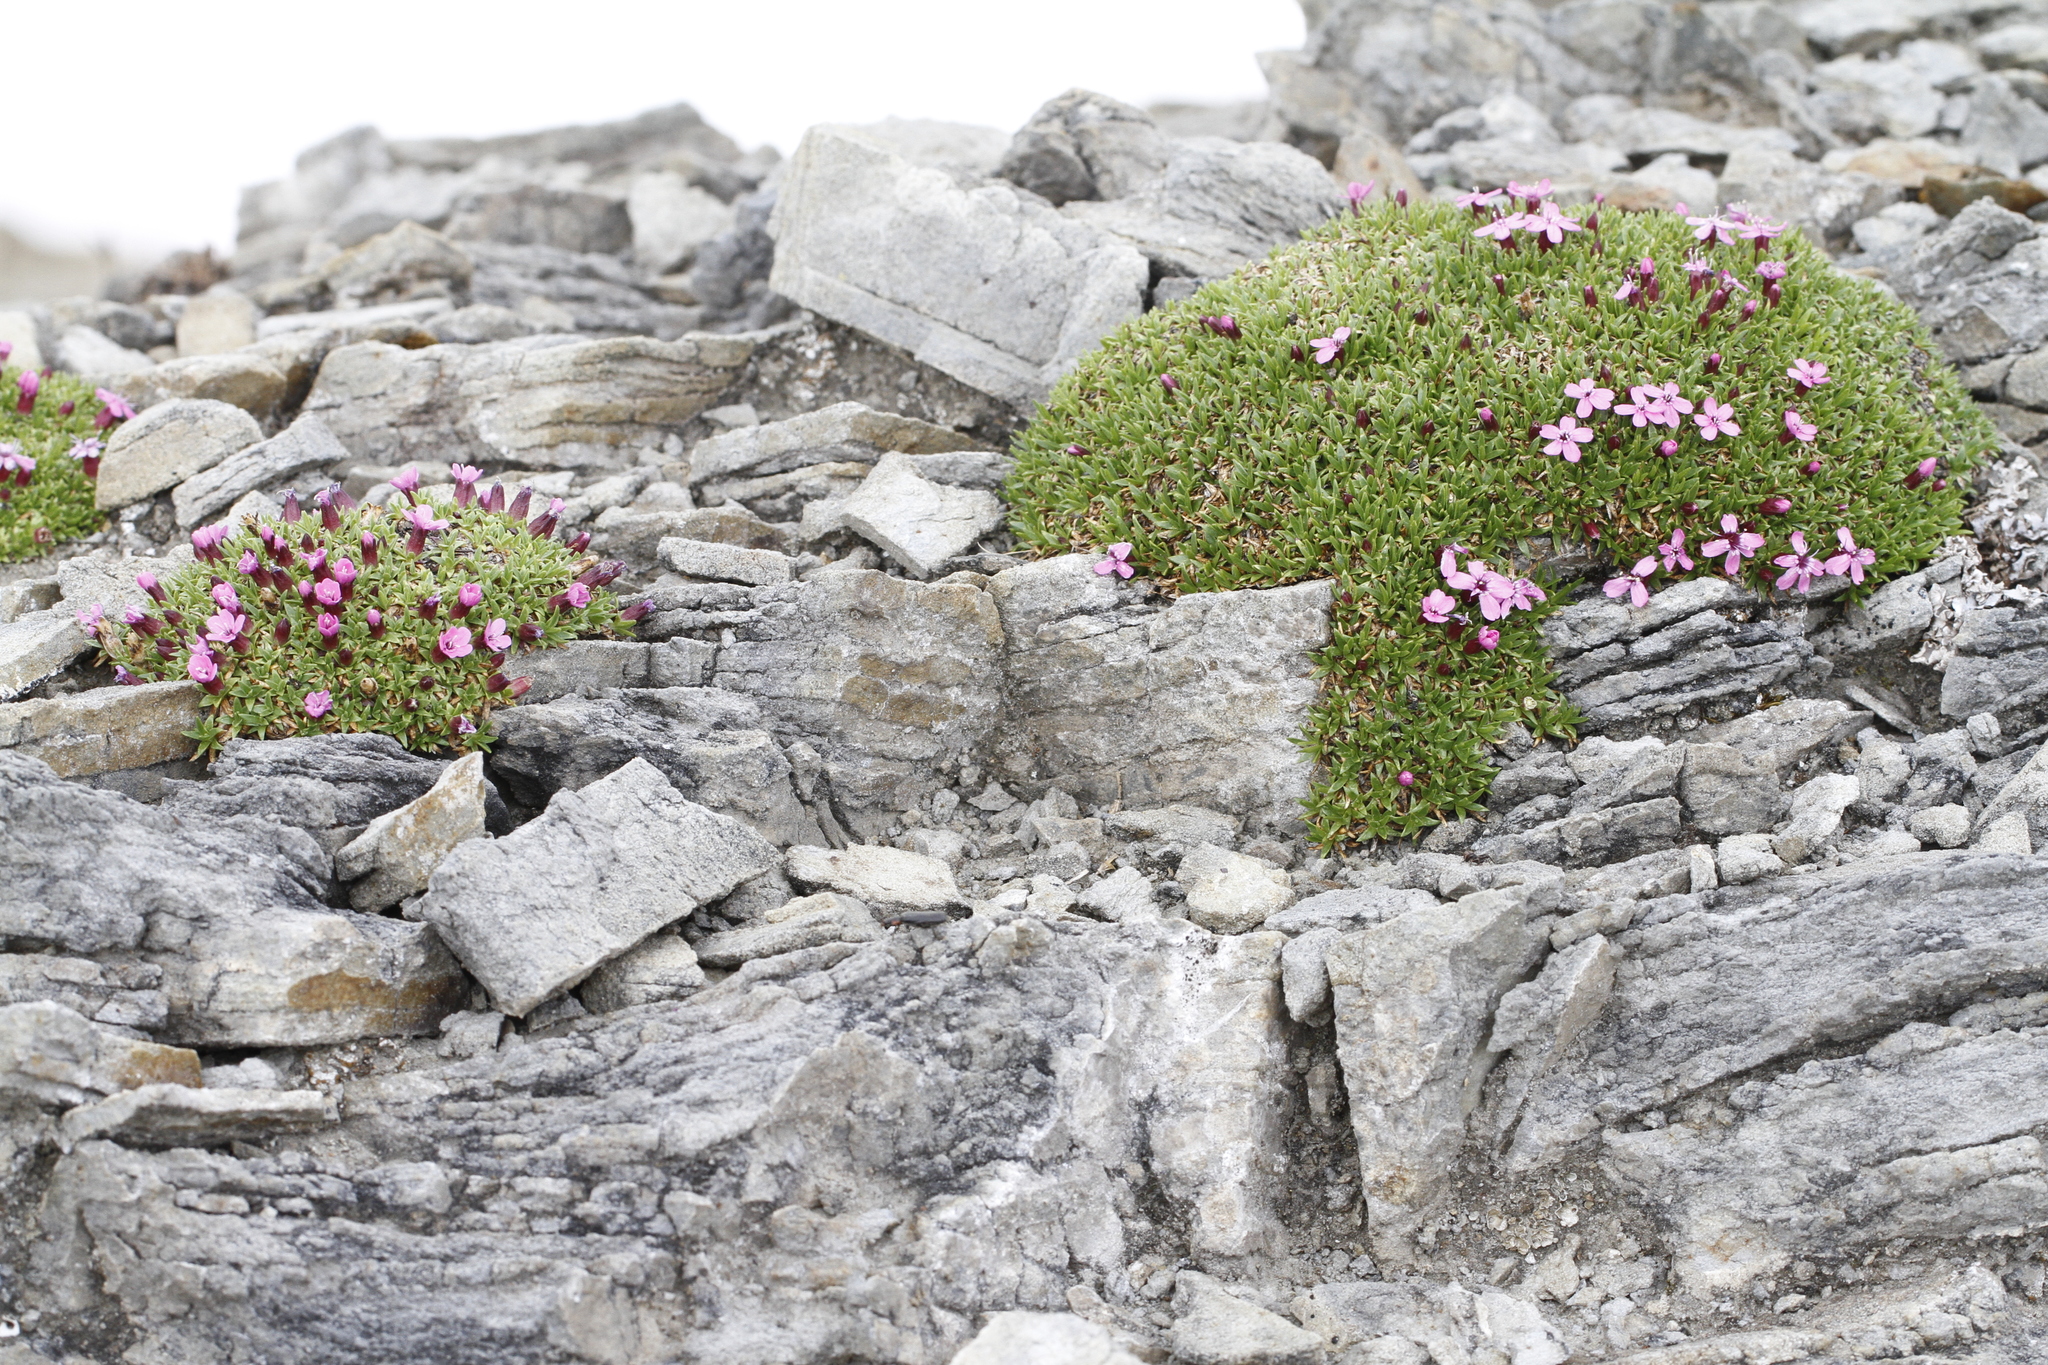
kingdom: Plantae
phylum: Tracheophyta
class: Magnoliopsida
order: Caryophyllales
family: Caryophyllaceae
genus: Silene
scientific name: Silene acaulis
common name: Moss campion
